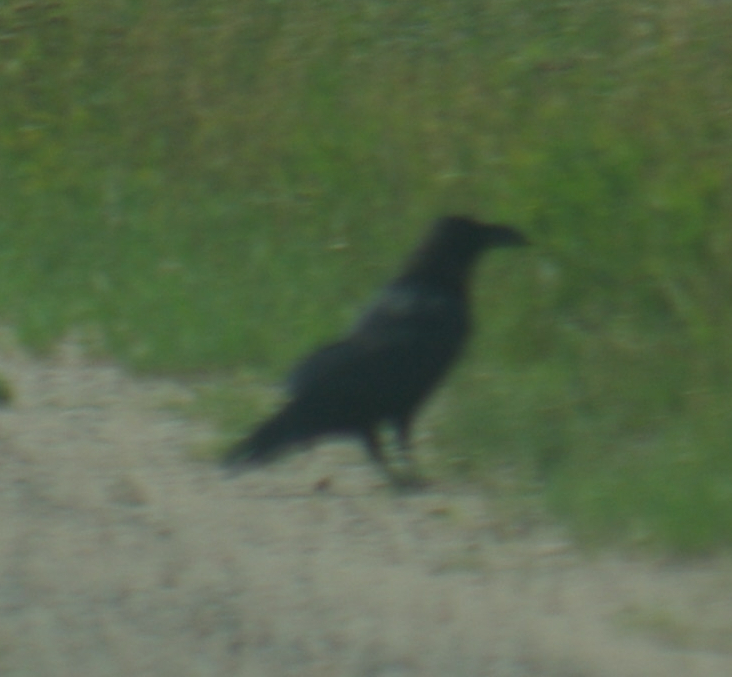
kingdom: Animalia
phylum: Chordata
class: Aves
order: Passeriformes
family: Corvidae
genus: Corvus
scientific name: Corvus corax
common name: Common raven
